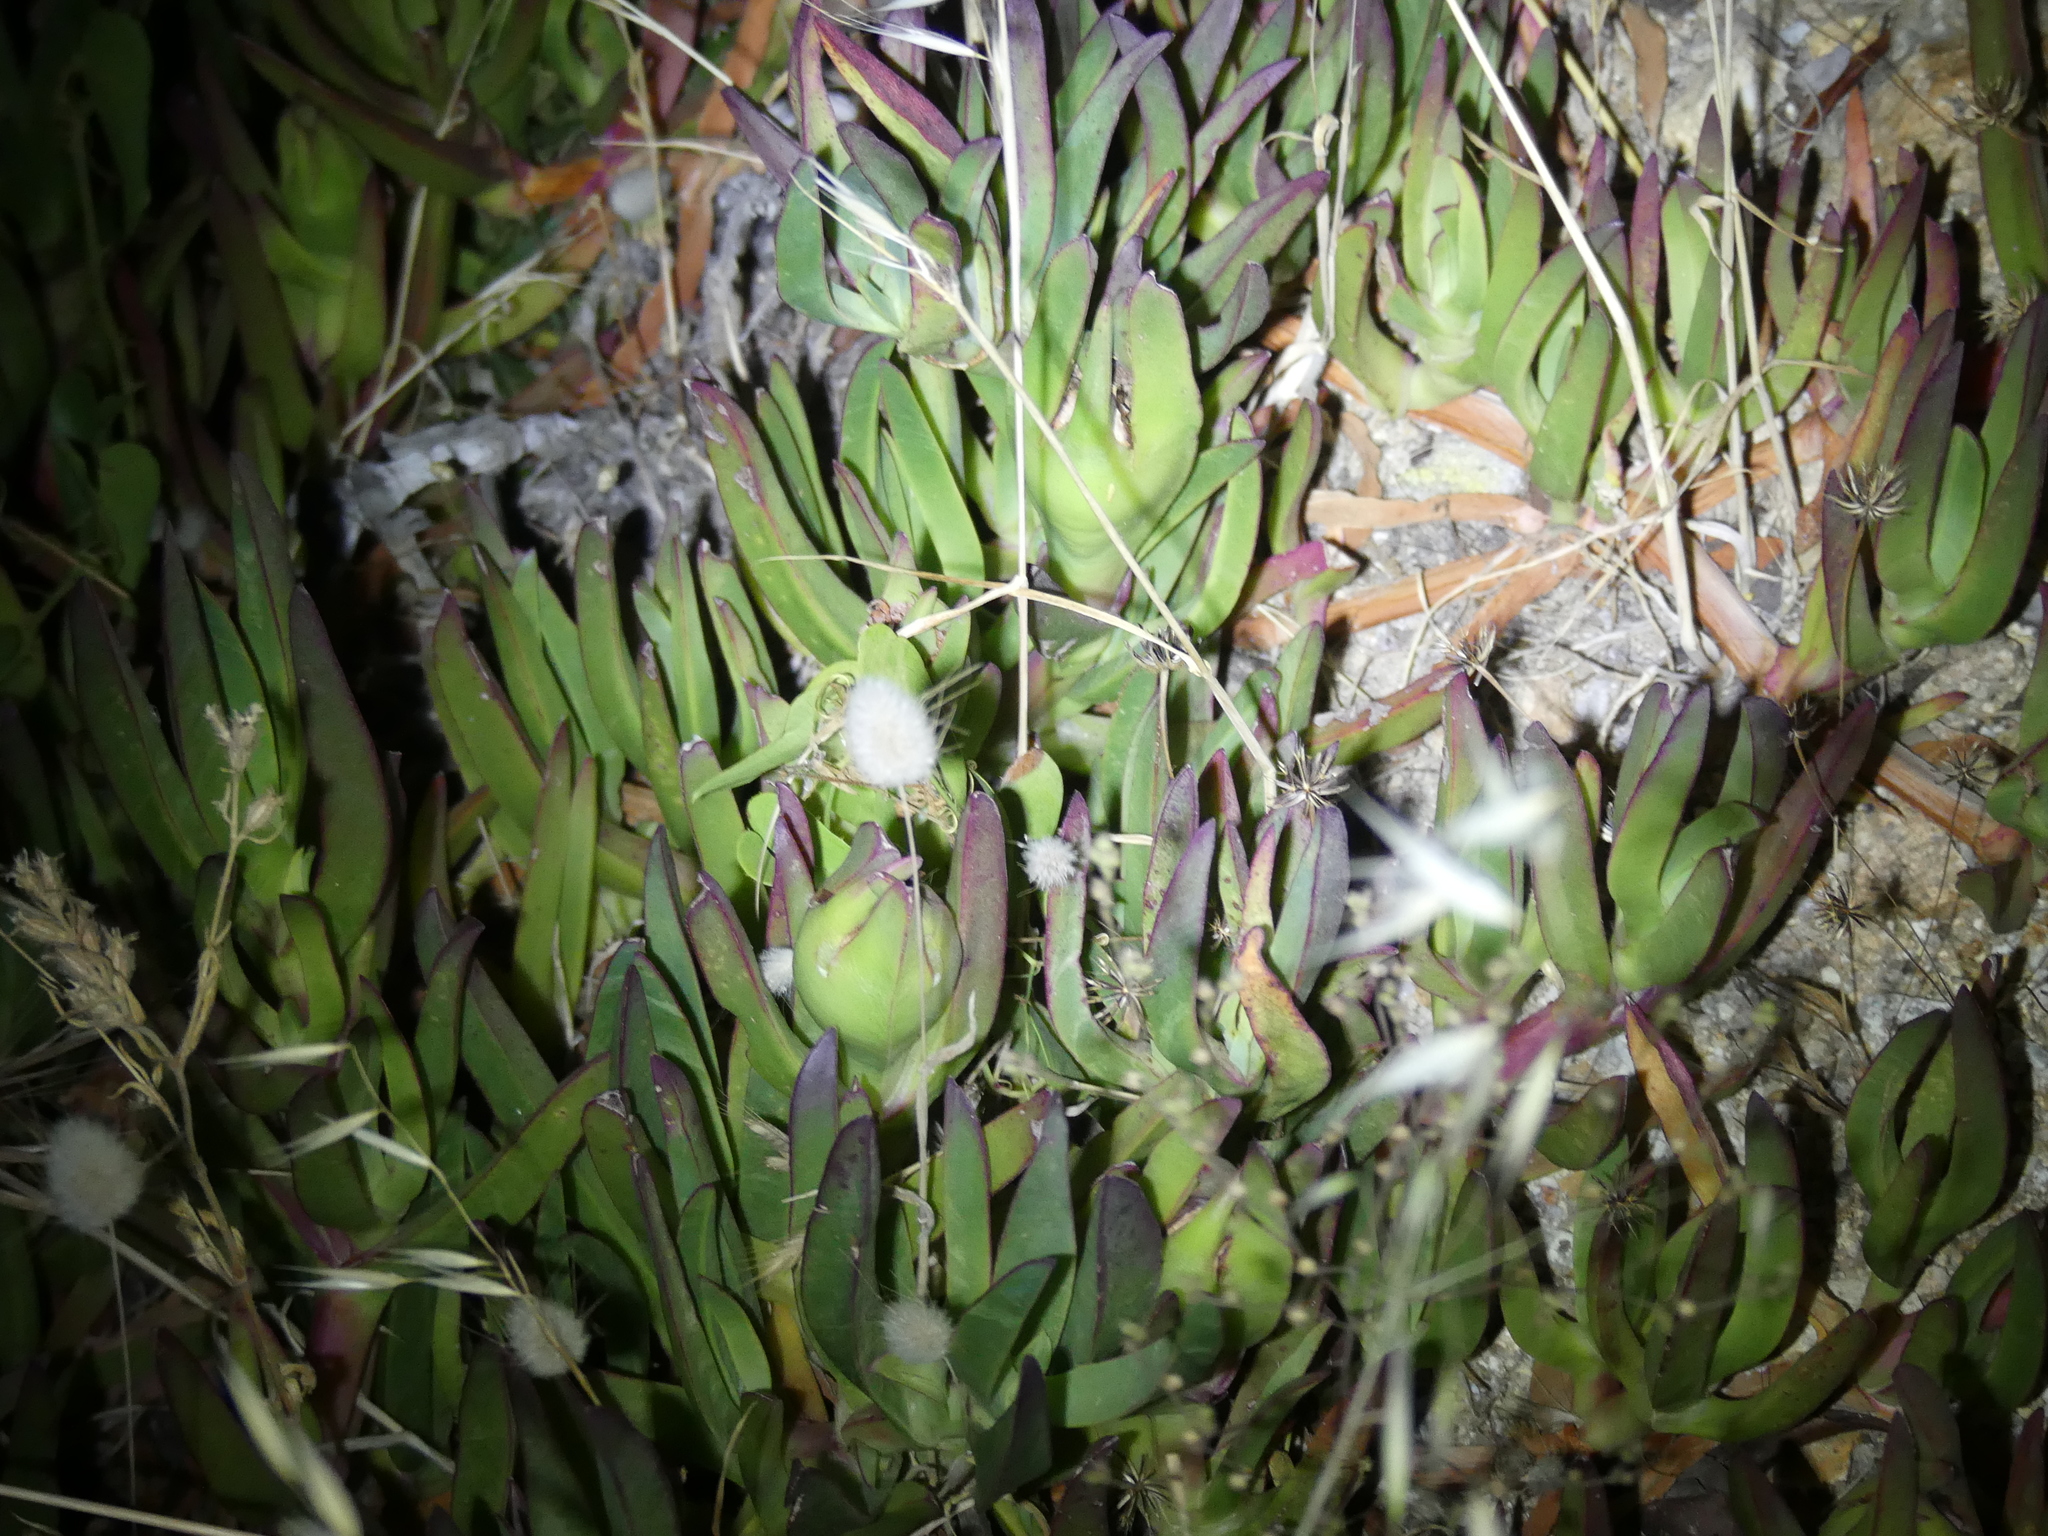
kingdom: Plantae
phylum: Tracheophyta
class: Magnoliopsida
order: Caryophyllales
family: Aizoaceae
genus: Carpobrotus
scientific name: Carpobrotus edulis
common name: Hottentot-fig
